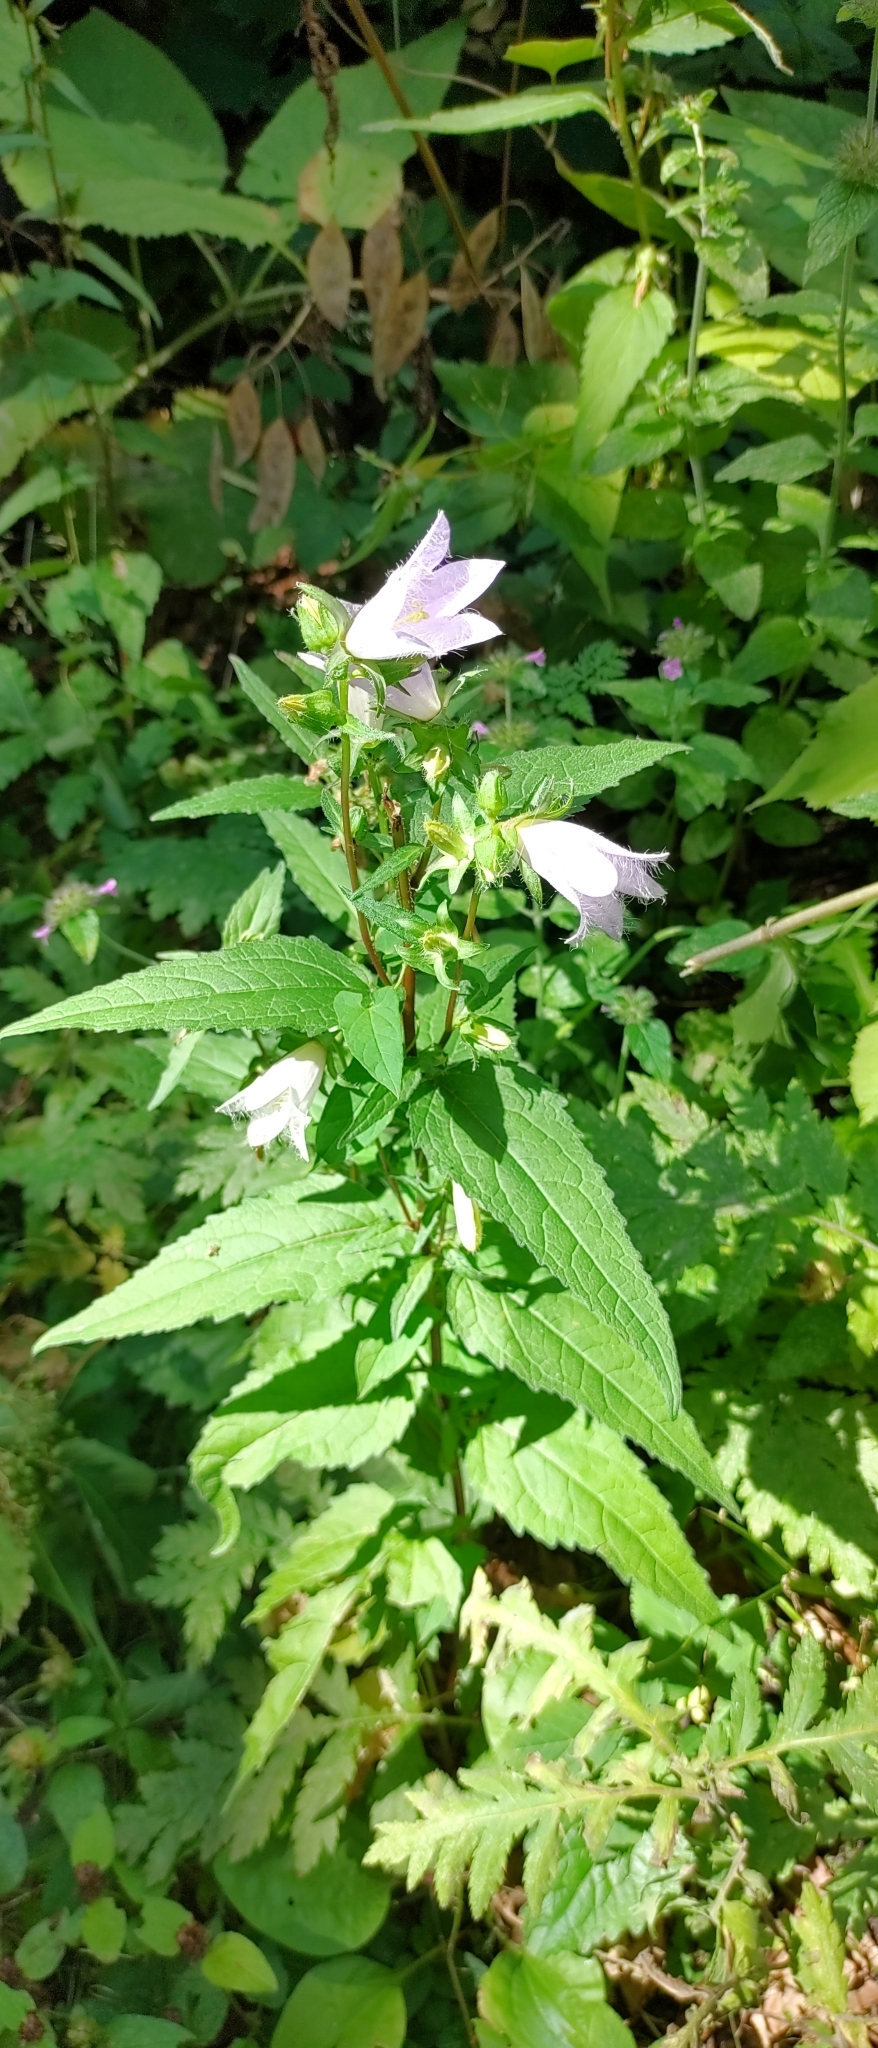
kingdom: Plantae
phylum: Tracheophyta
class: Magnoliopsida
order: Asterales
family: Campanulaceae
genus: Campanula
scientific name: Campanula trachelium
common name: Nettle-leaved bellflower
